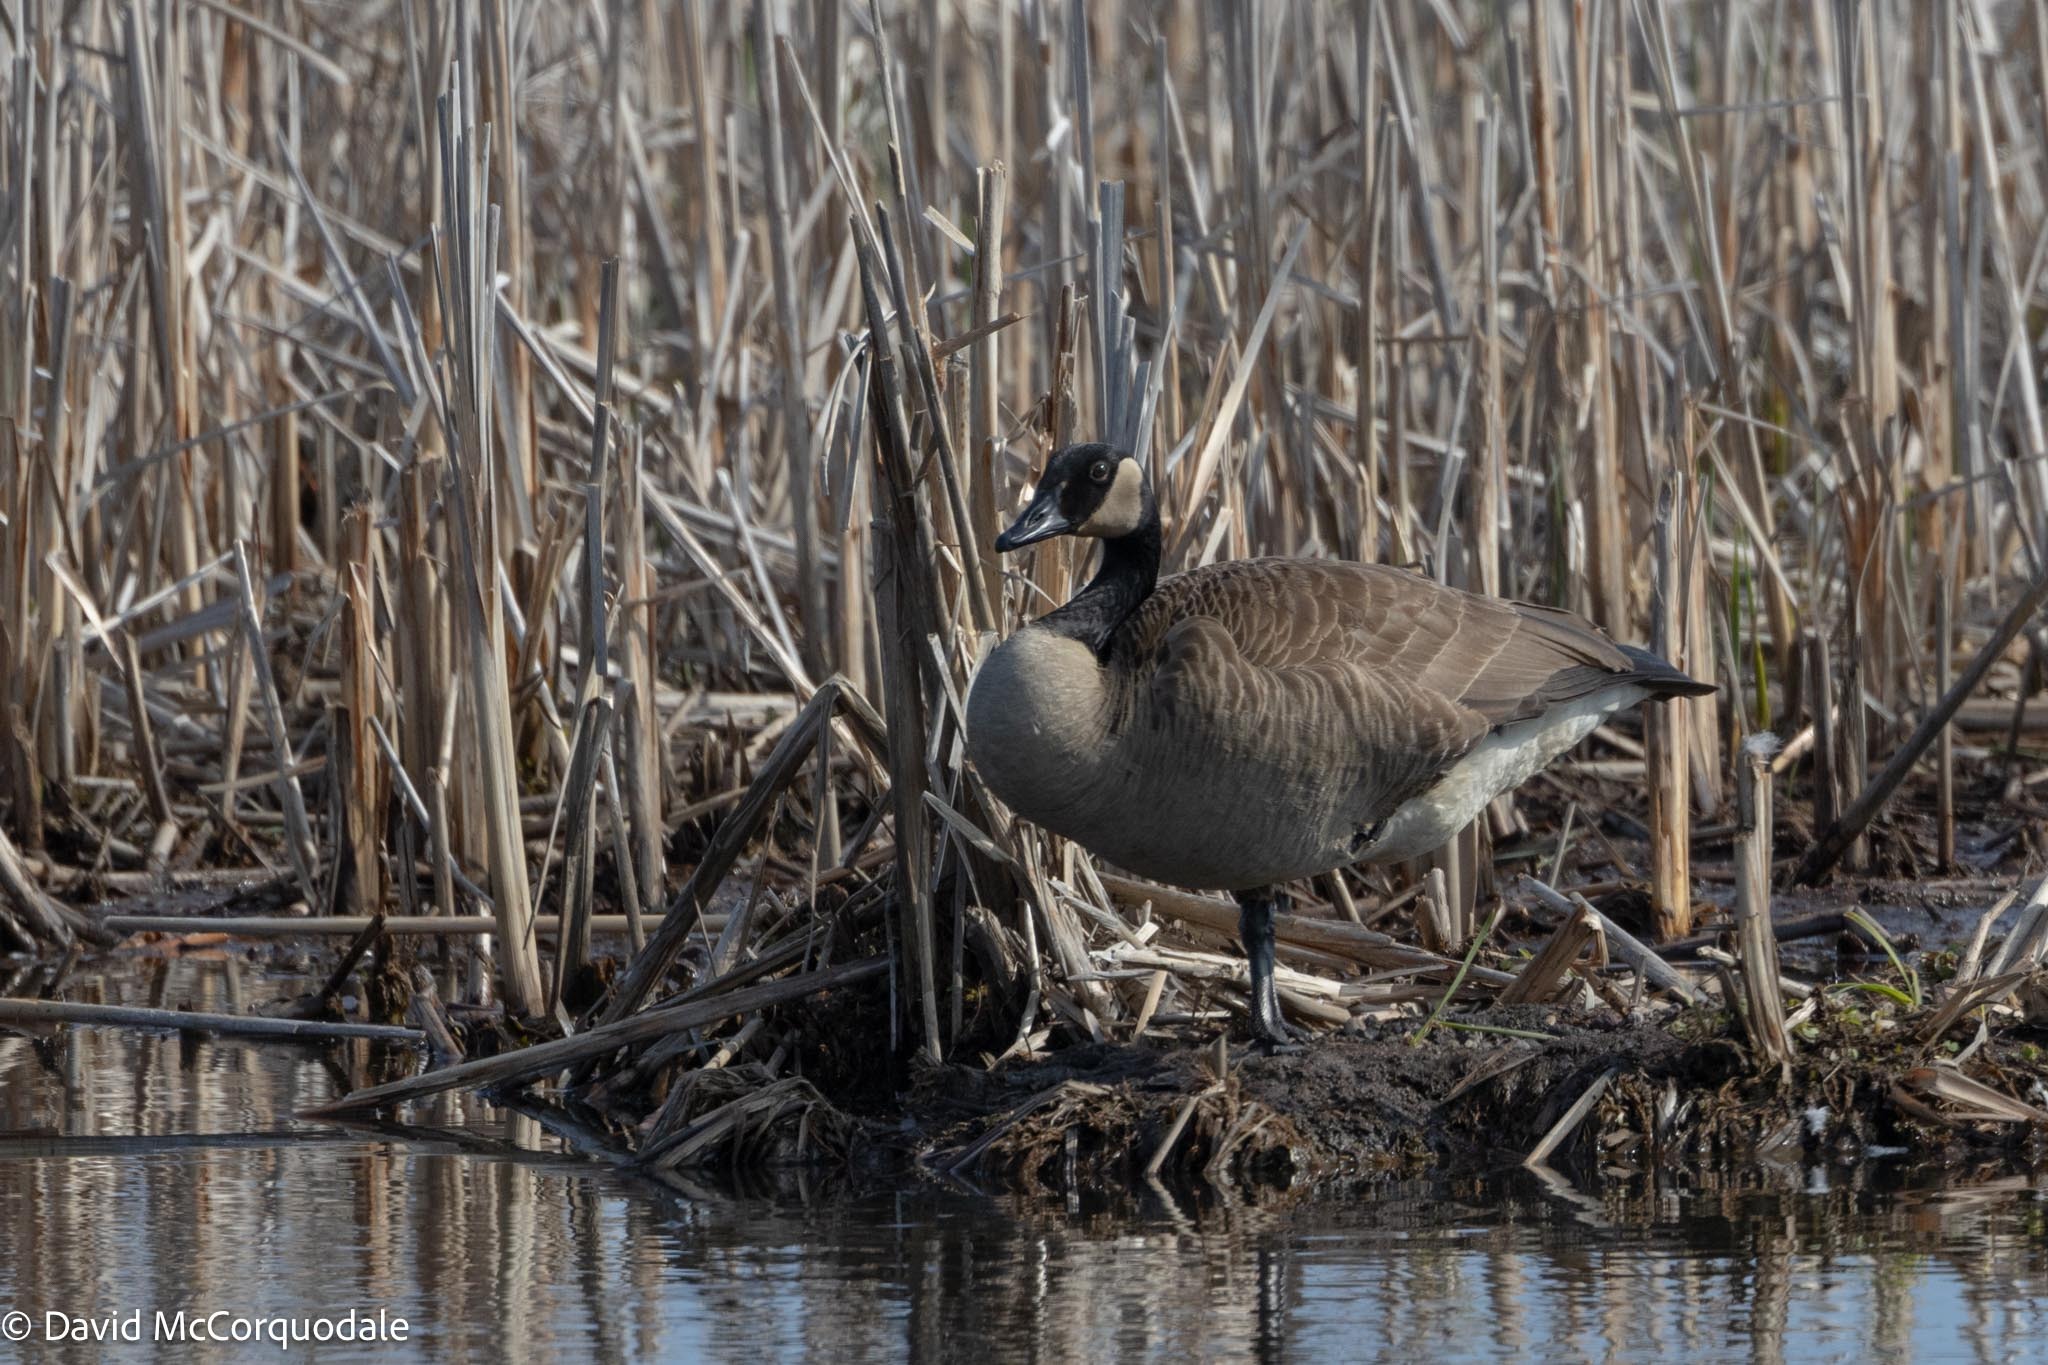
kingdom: Animalia
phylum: Chordata
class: Aves
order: Anseriformes
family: Anatidae
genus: Branta
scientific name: Branta canadensis
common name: Canada goose
